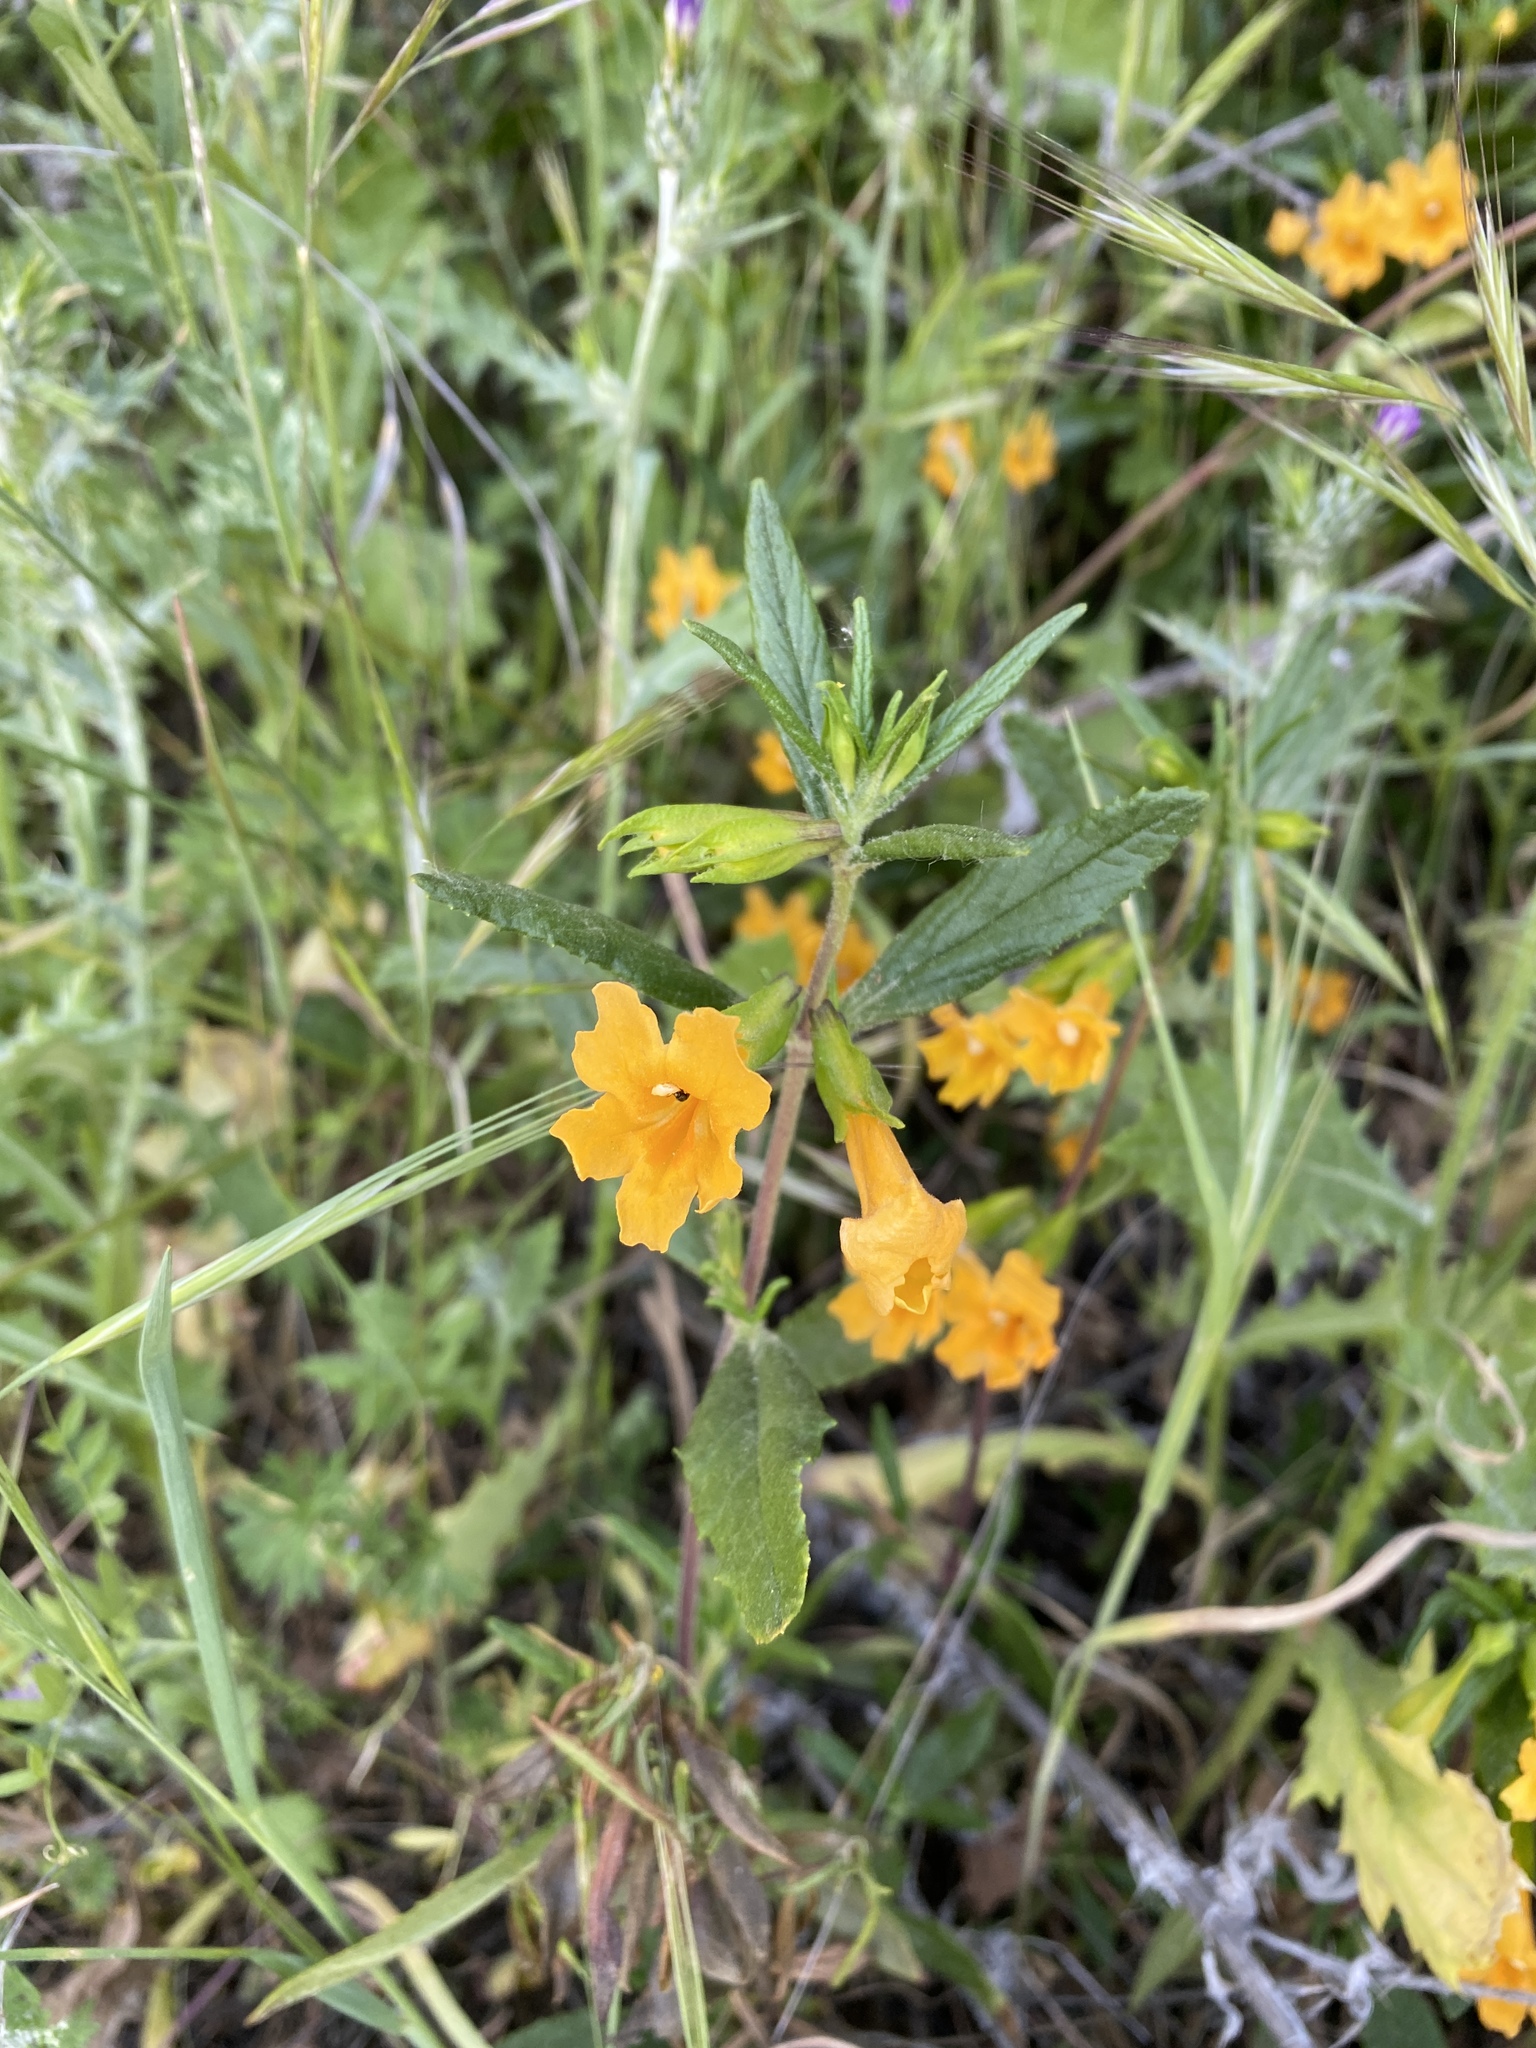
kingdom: Plantae
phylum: Tracheophyta
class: Magnoliopsida
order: Lamiales
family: Phrymaceae
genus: Diplacus
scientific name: Diplacus aurantiacus
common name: Bush monkey-flower
